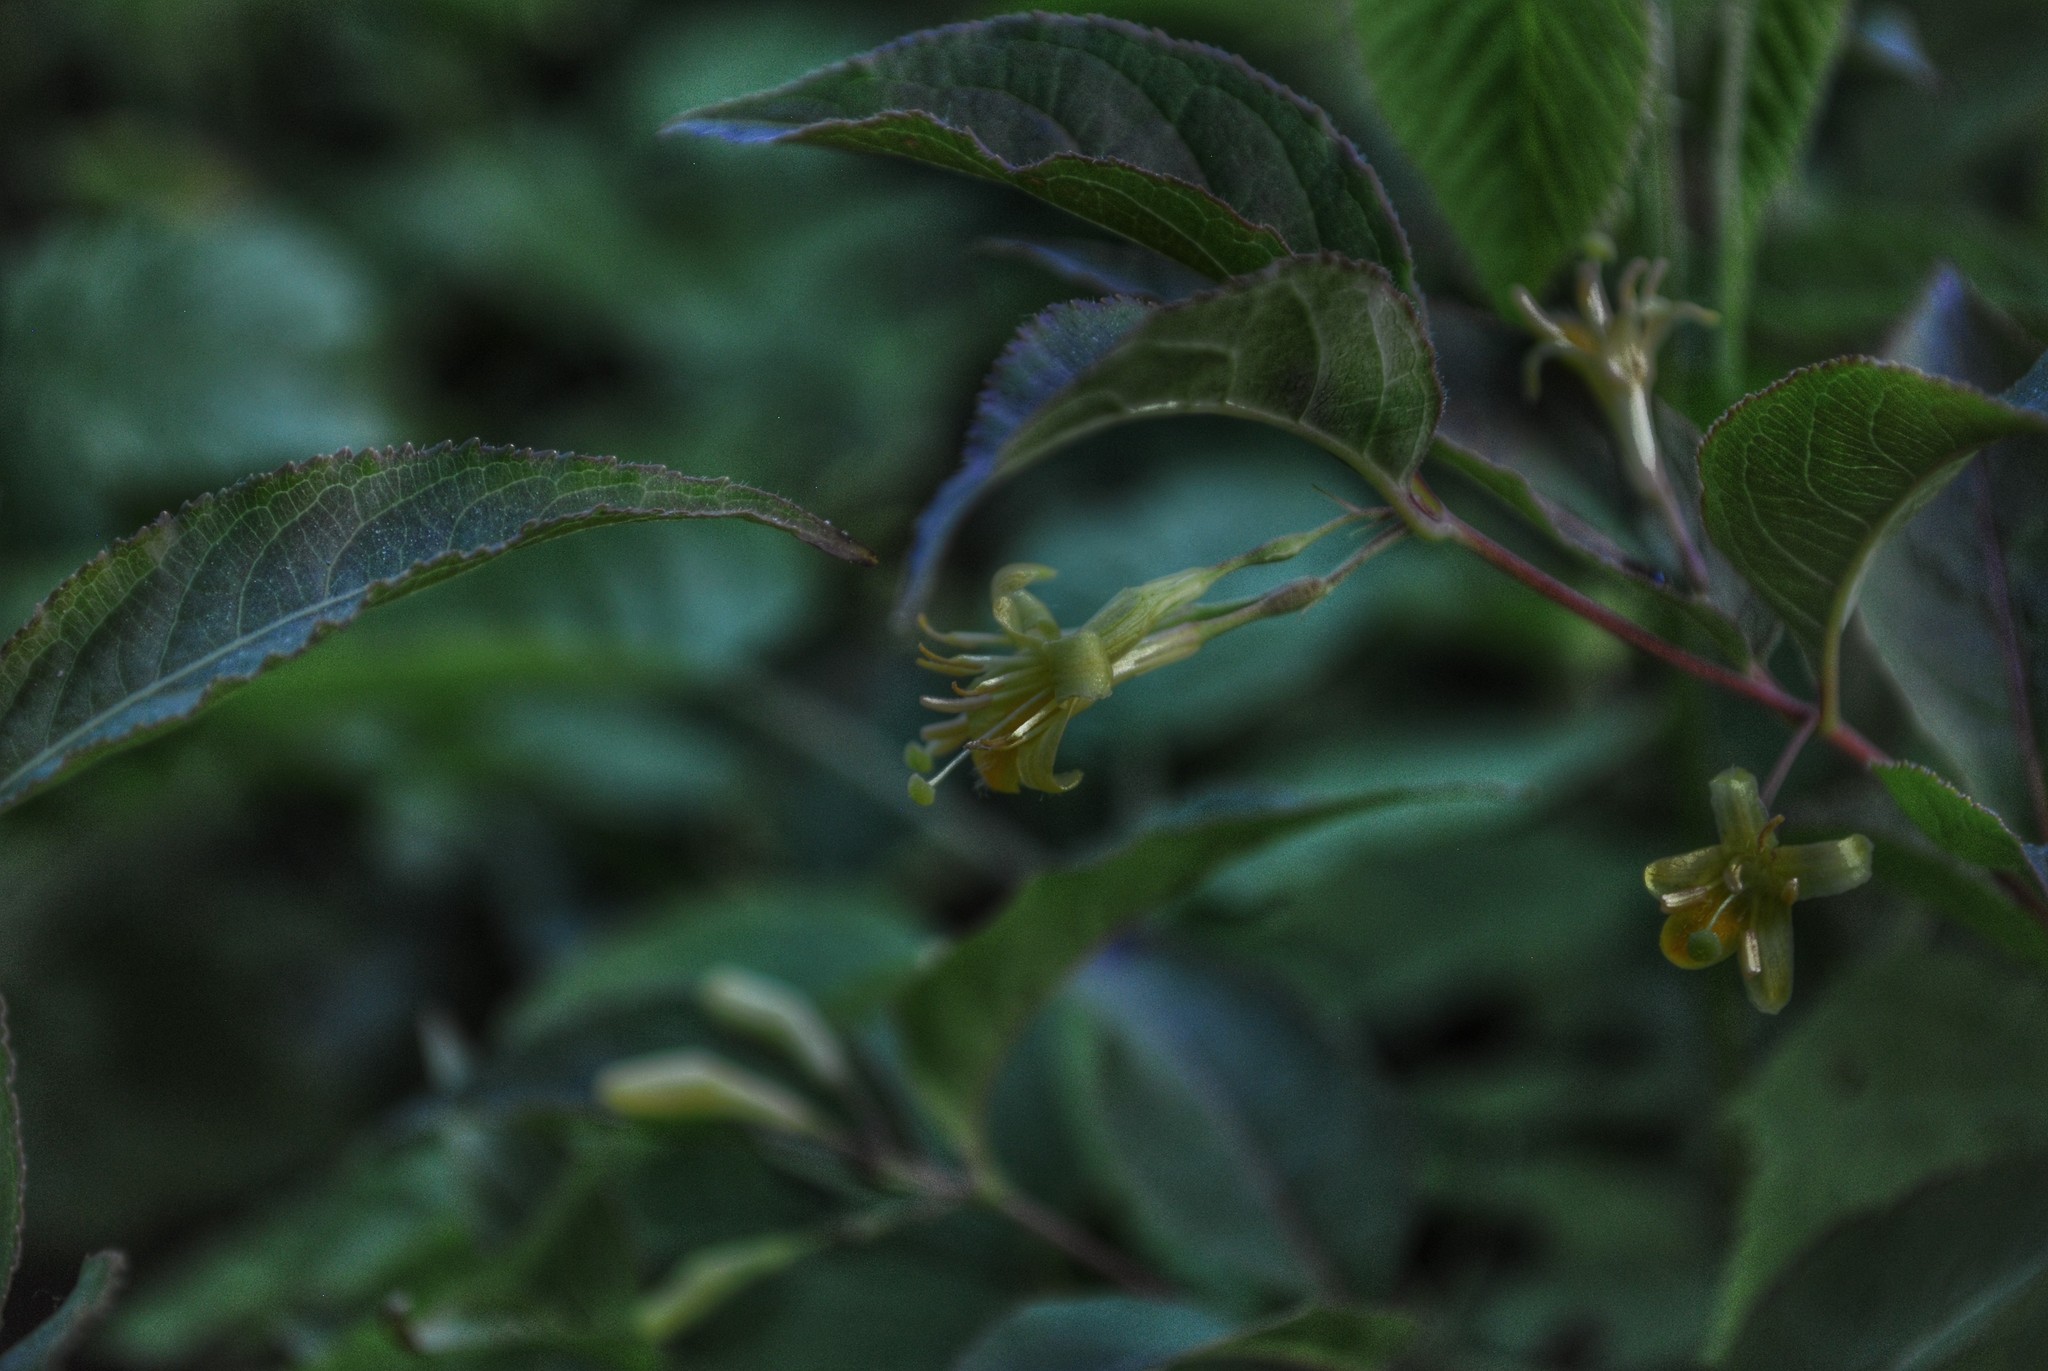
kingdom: Plantae
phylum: Tracheophyta
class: Magnoliopsida
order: Dipsacales
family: Caprifoliaceae
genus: Diervilla
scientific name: Diervilla lonicera
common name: Bush-honeysuckle
